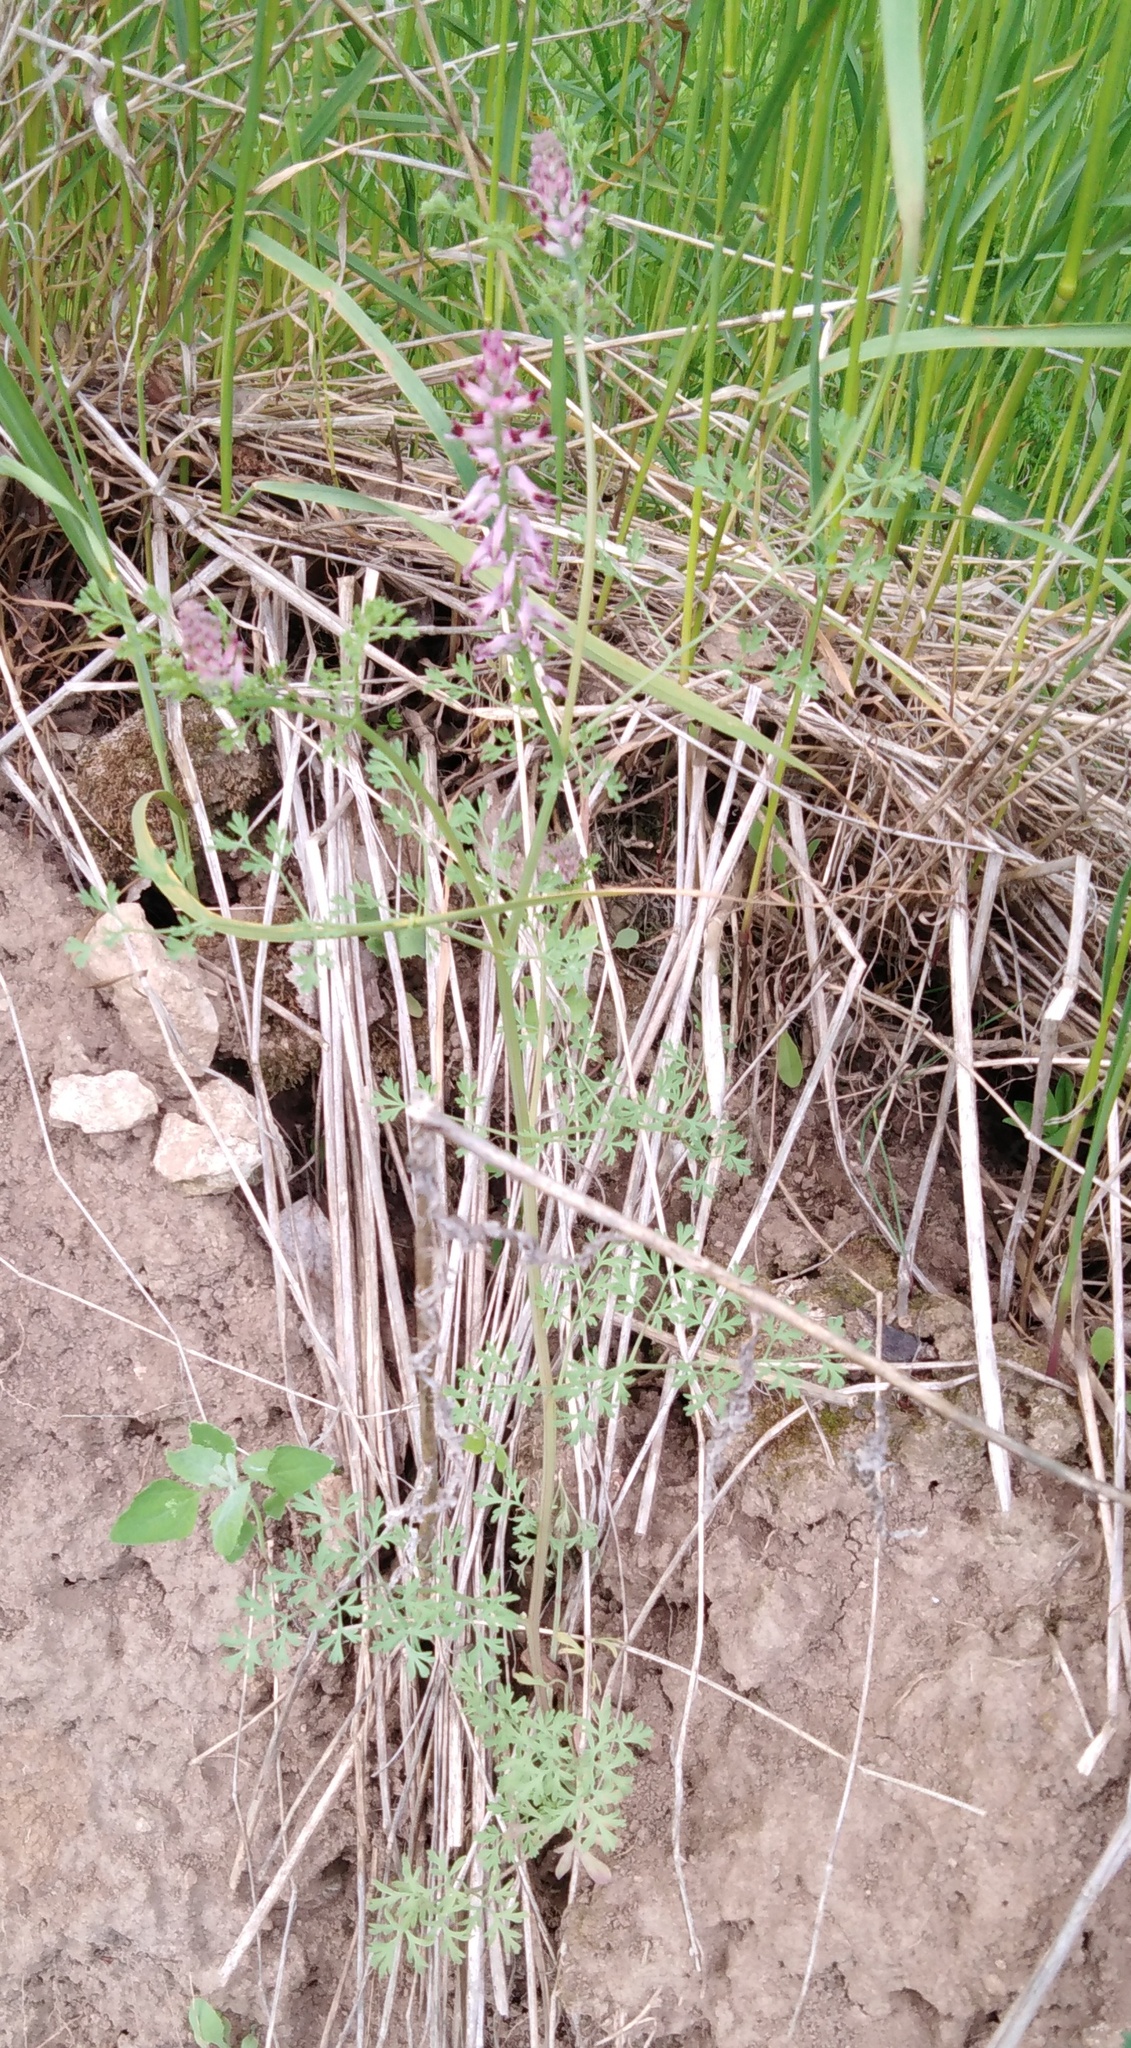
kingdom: Plantae
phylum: Tracheophyta
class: Magnoliopsida
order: Ranunculales
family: Papaveraceae
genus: Fumaria
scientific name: Fumaria officinalis
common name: Common fumitory
